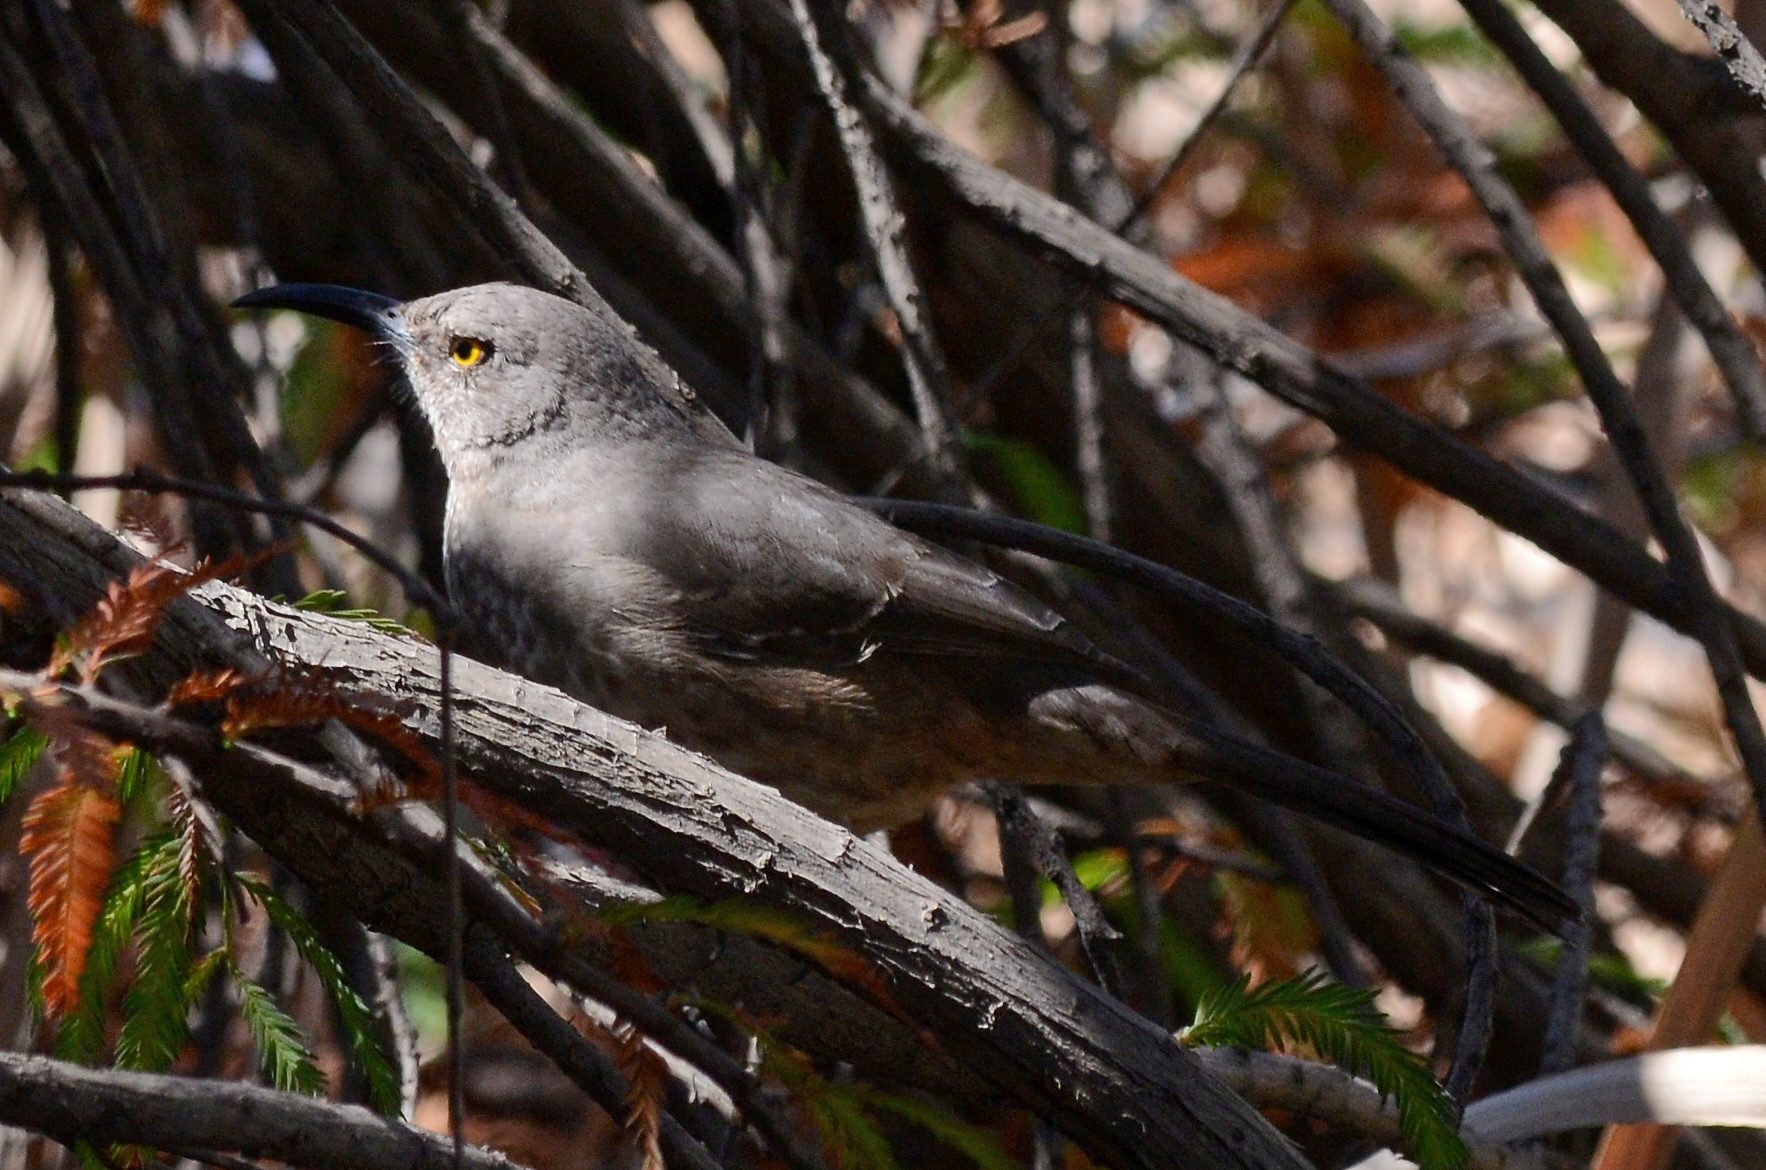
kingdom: Animalia
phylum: Chordata
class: Aves
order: Passeriformes
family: Mimidae
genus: Toxostoma
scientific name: Toxostoma curvirostre
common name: Curve-billed thrasher
